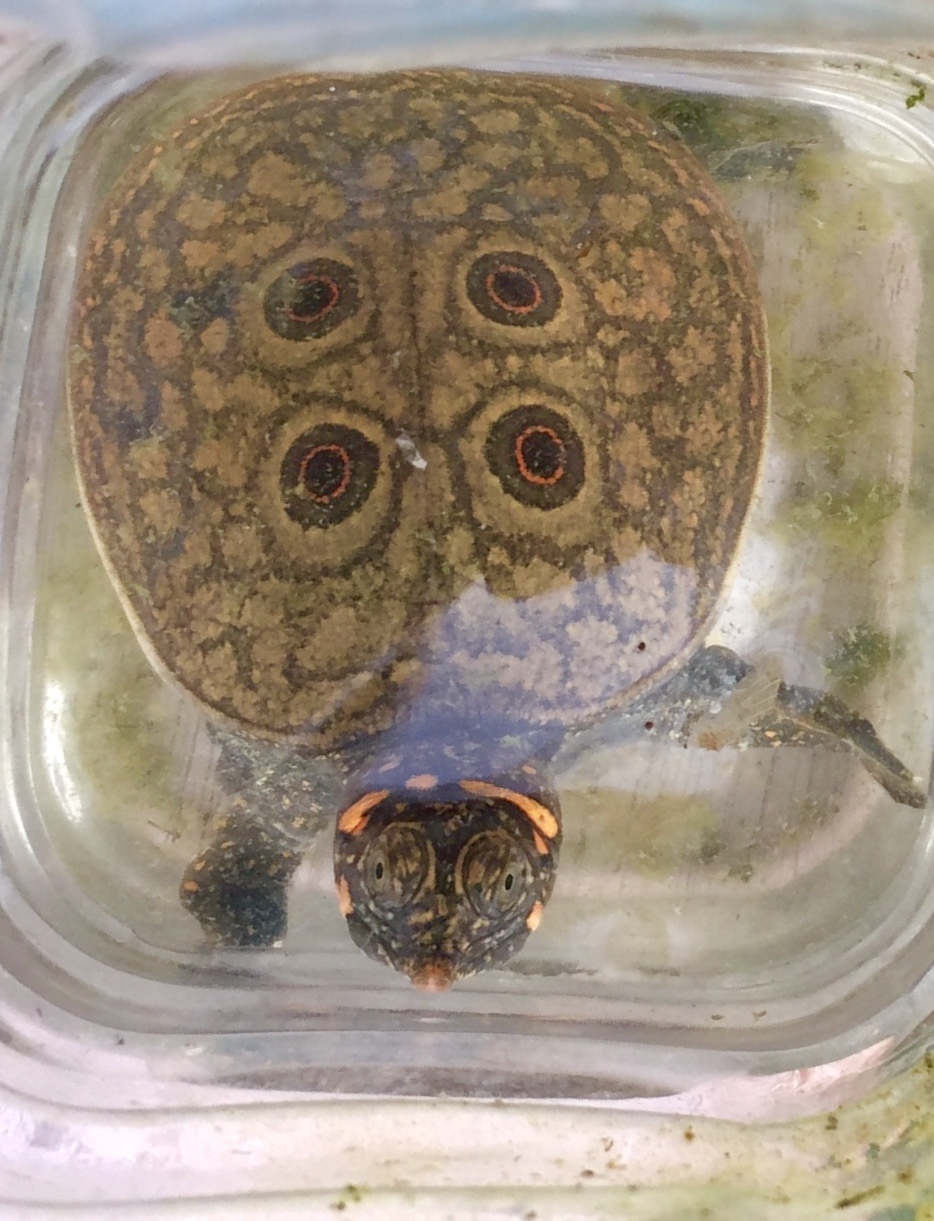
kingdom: Animalia
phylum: Chordata
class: Testudines
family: Trionychidae
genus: Nilssonia
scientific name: Nilssonia formosa
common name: Burmese peacock softshell
